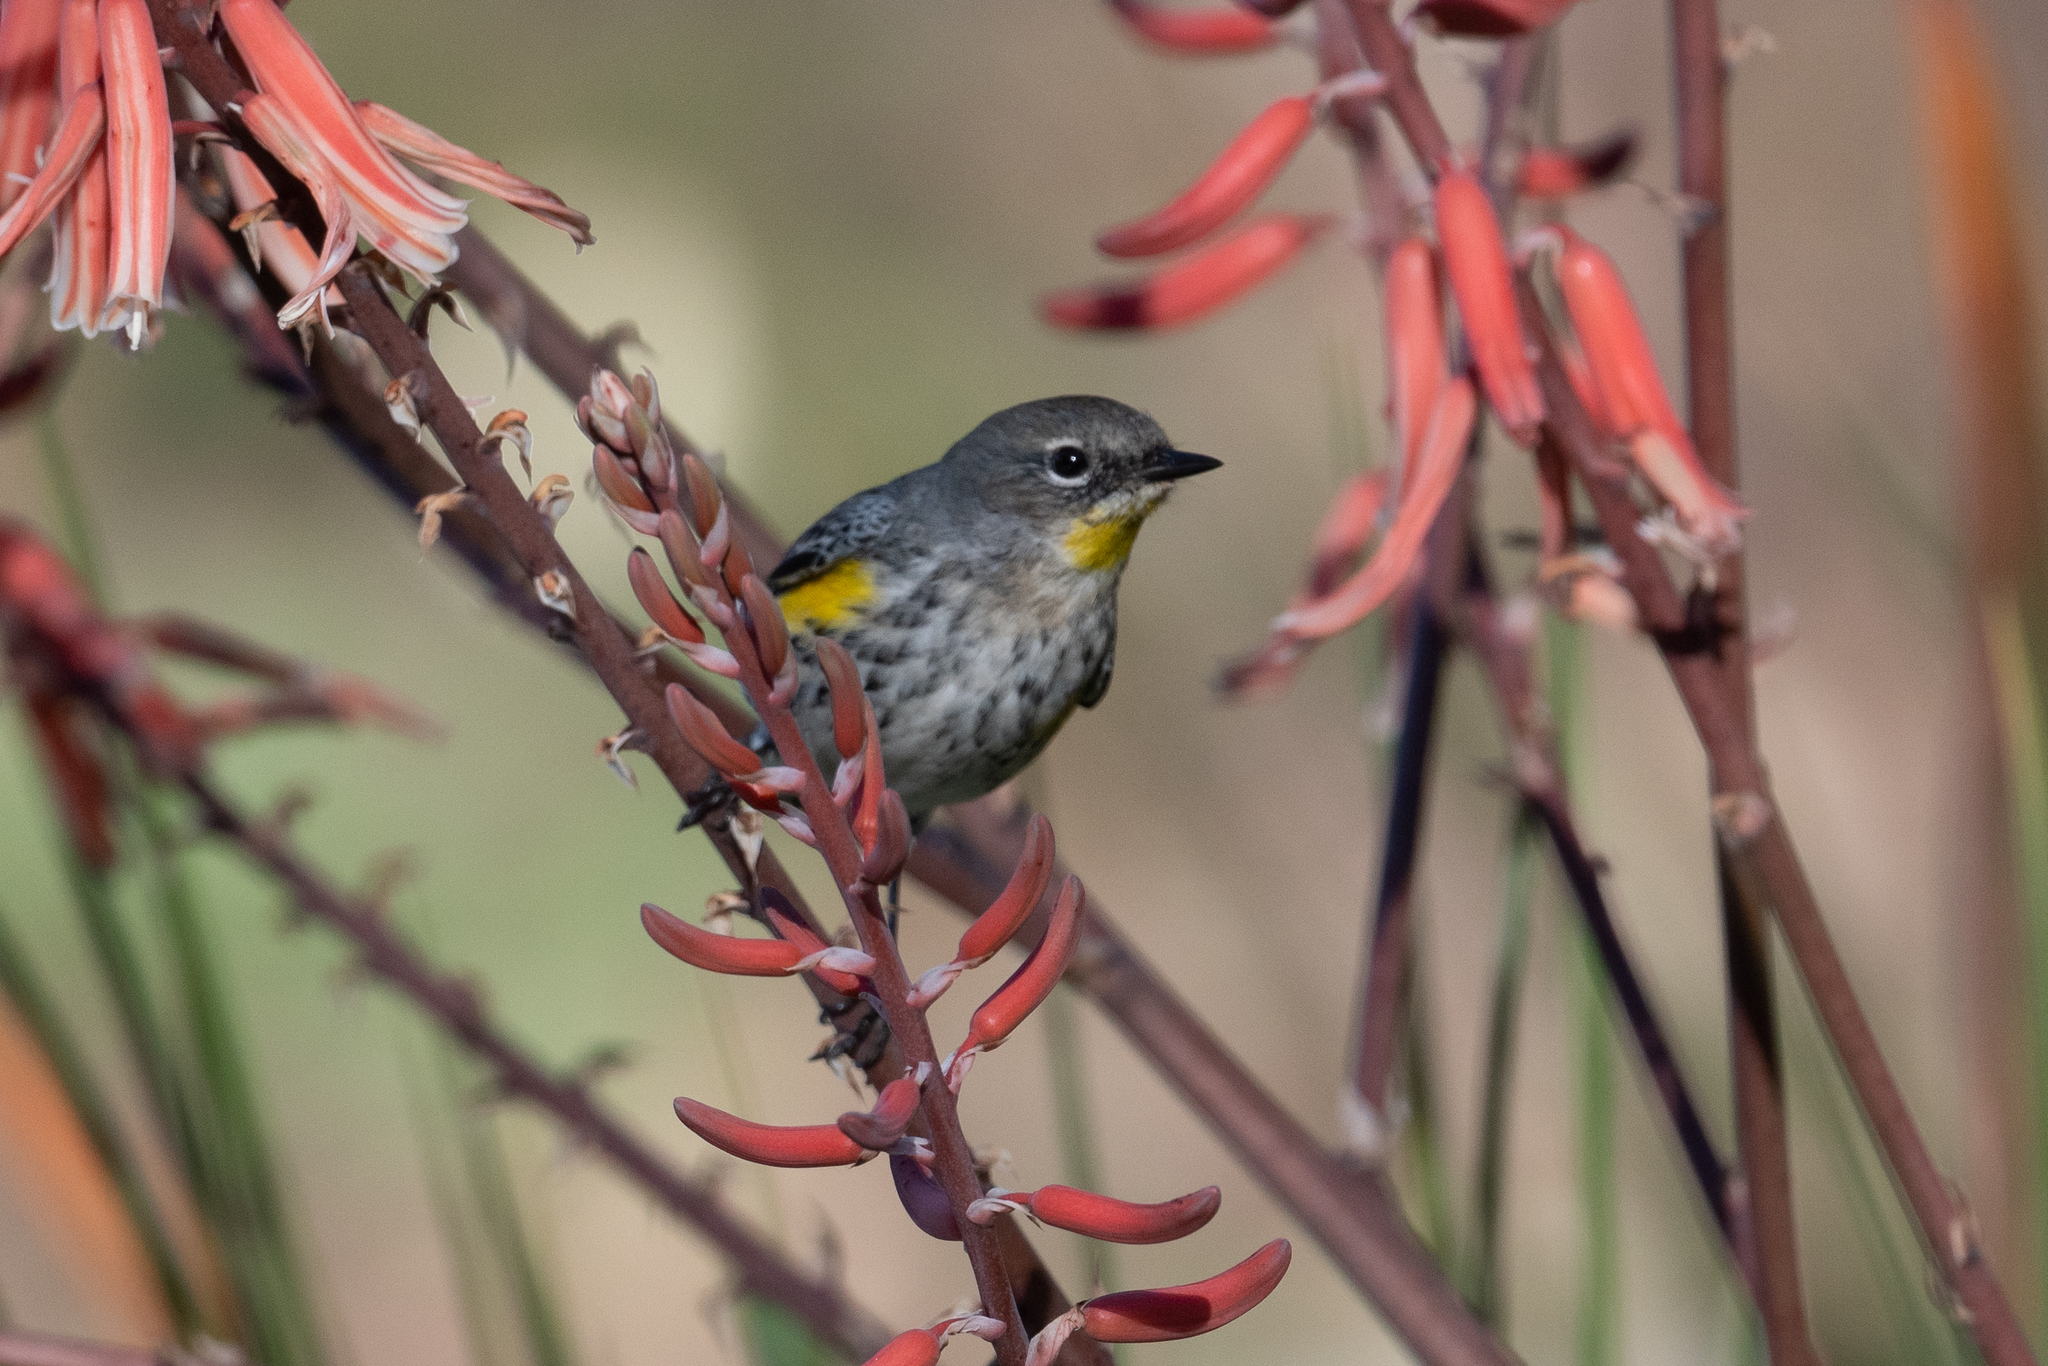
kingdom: Animalia
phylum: Chordata
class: Aves
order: Passeriformes
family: Parulidae
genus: Setophaga
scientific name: Setophaga coronata
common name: Myrtle warbler
